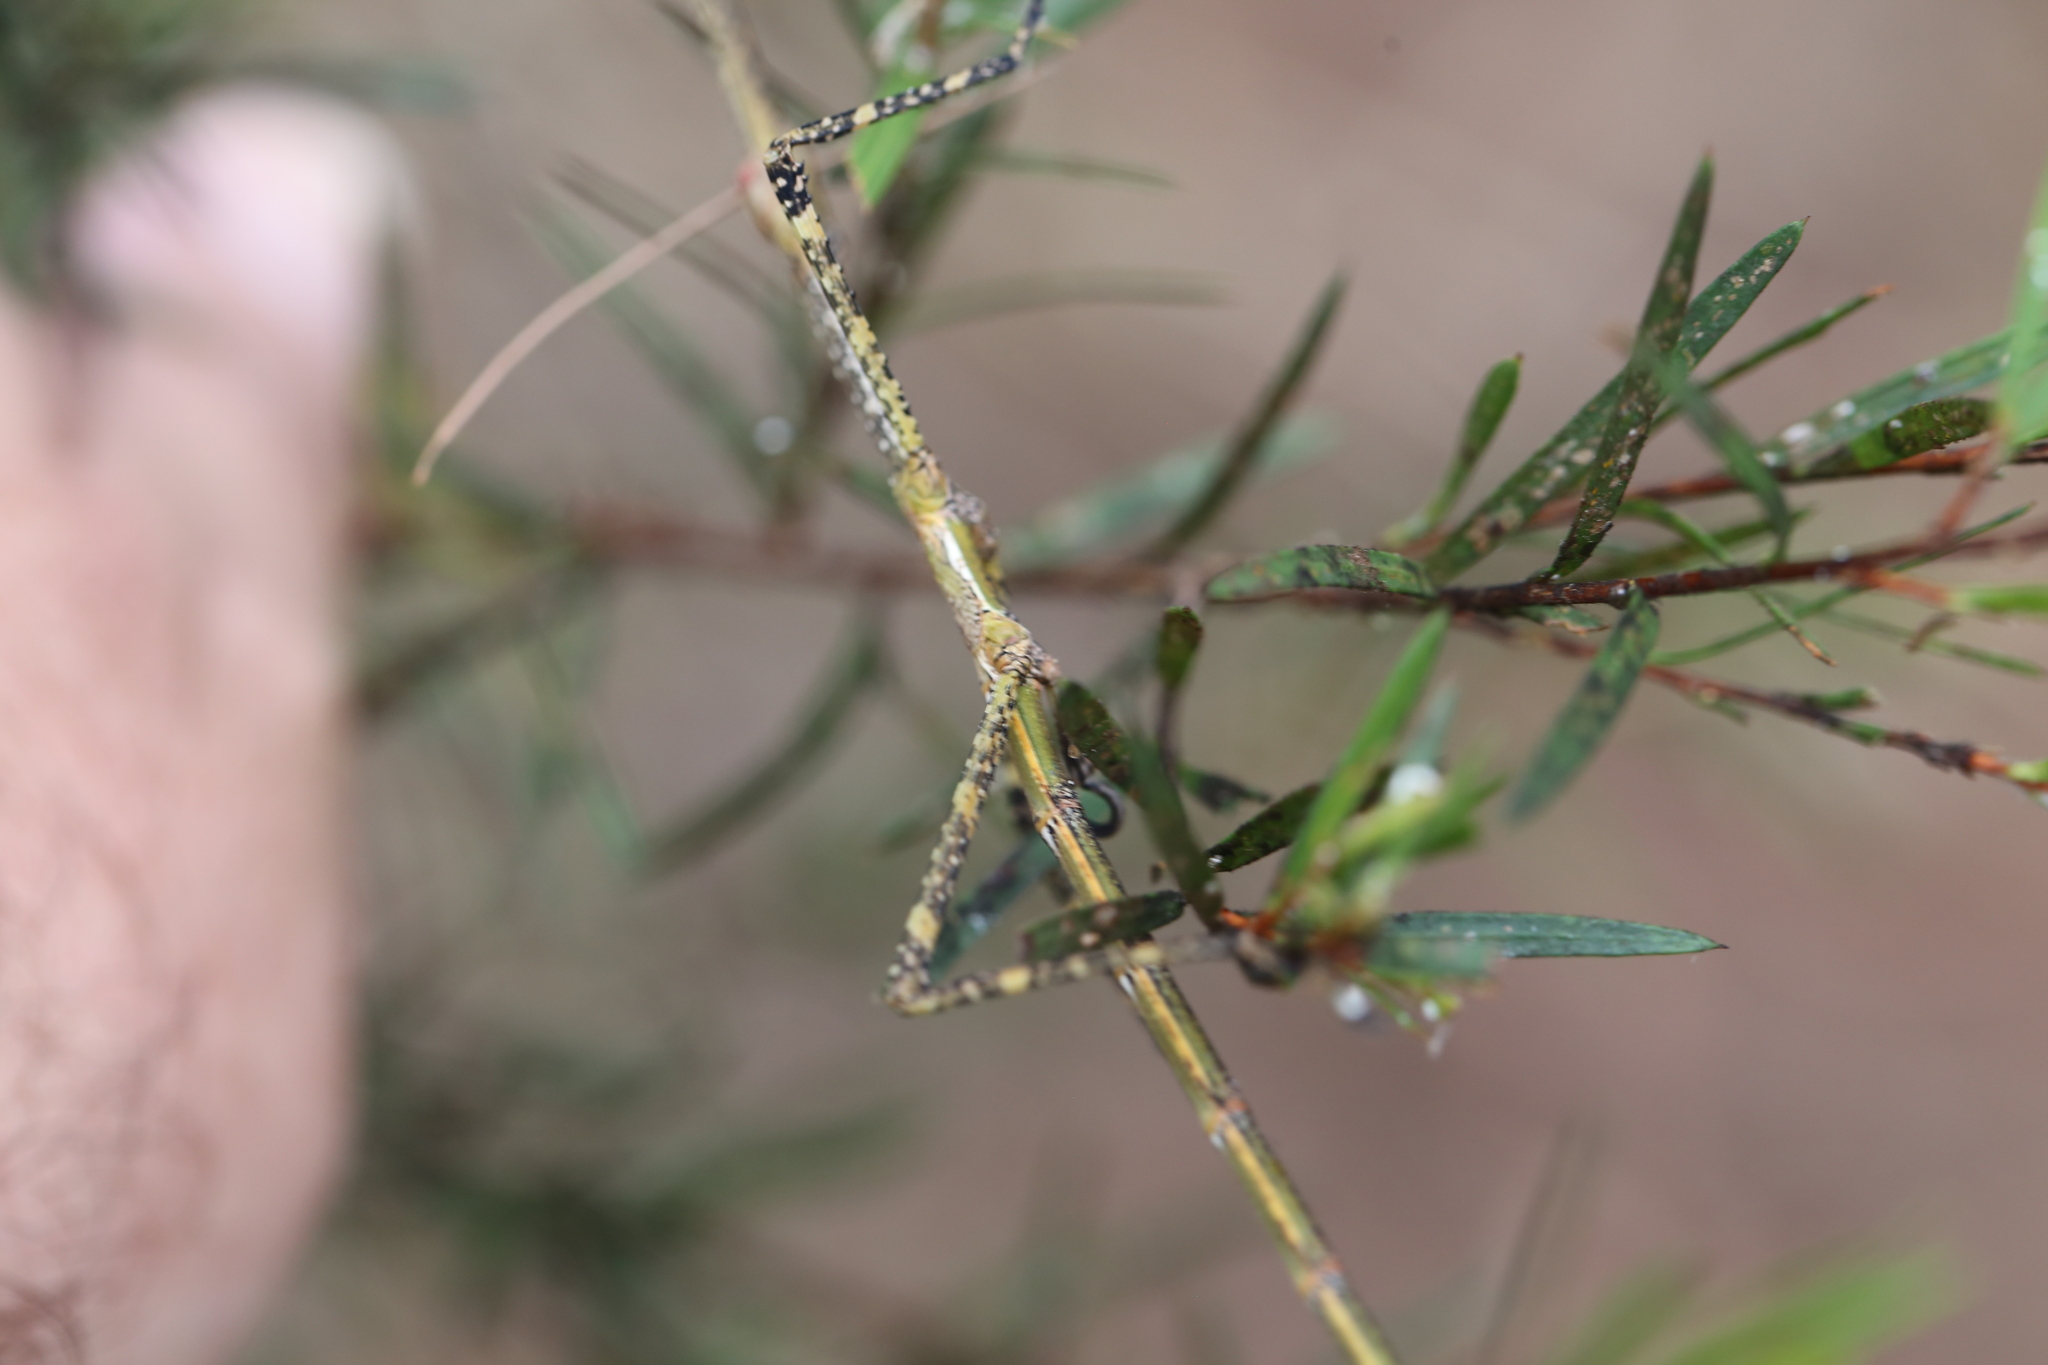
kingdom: Animalia
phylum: Arthropoda
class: Insecta
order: Phasmida
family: Phasmatidae
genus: Anchiale
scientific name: Anchiale austrotessulata
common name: Tessellated stick-insect
